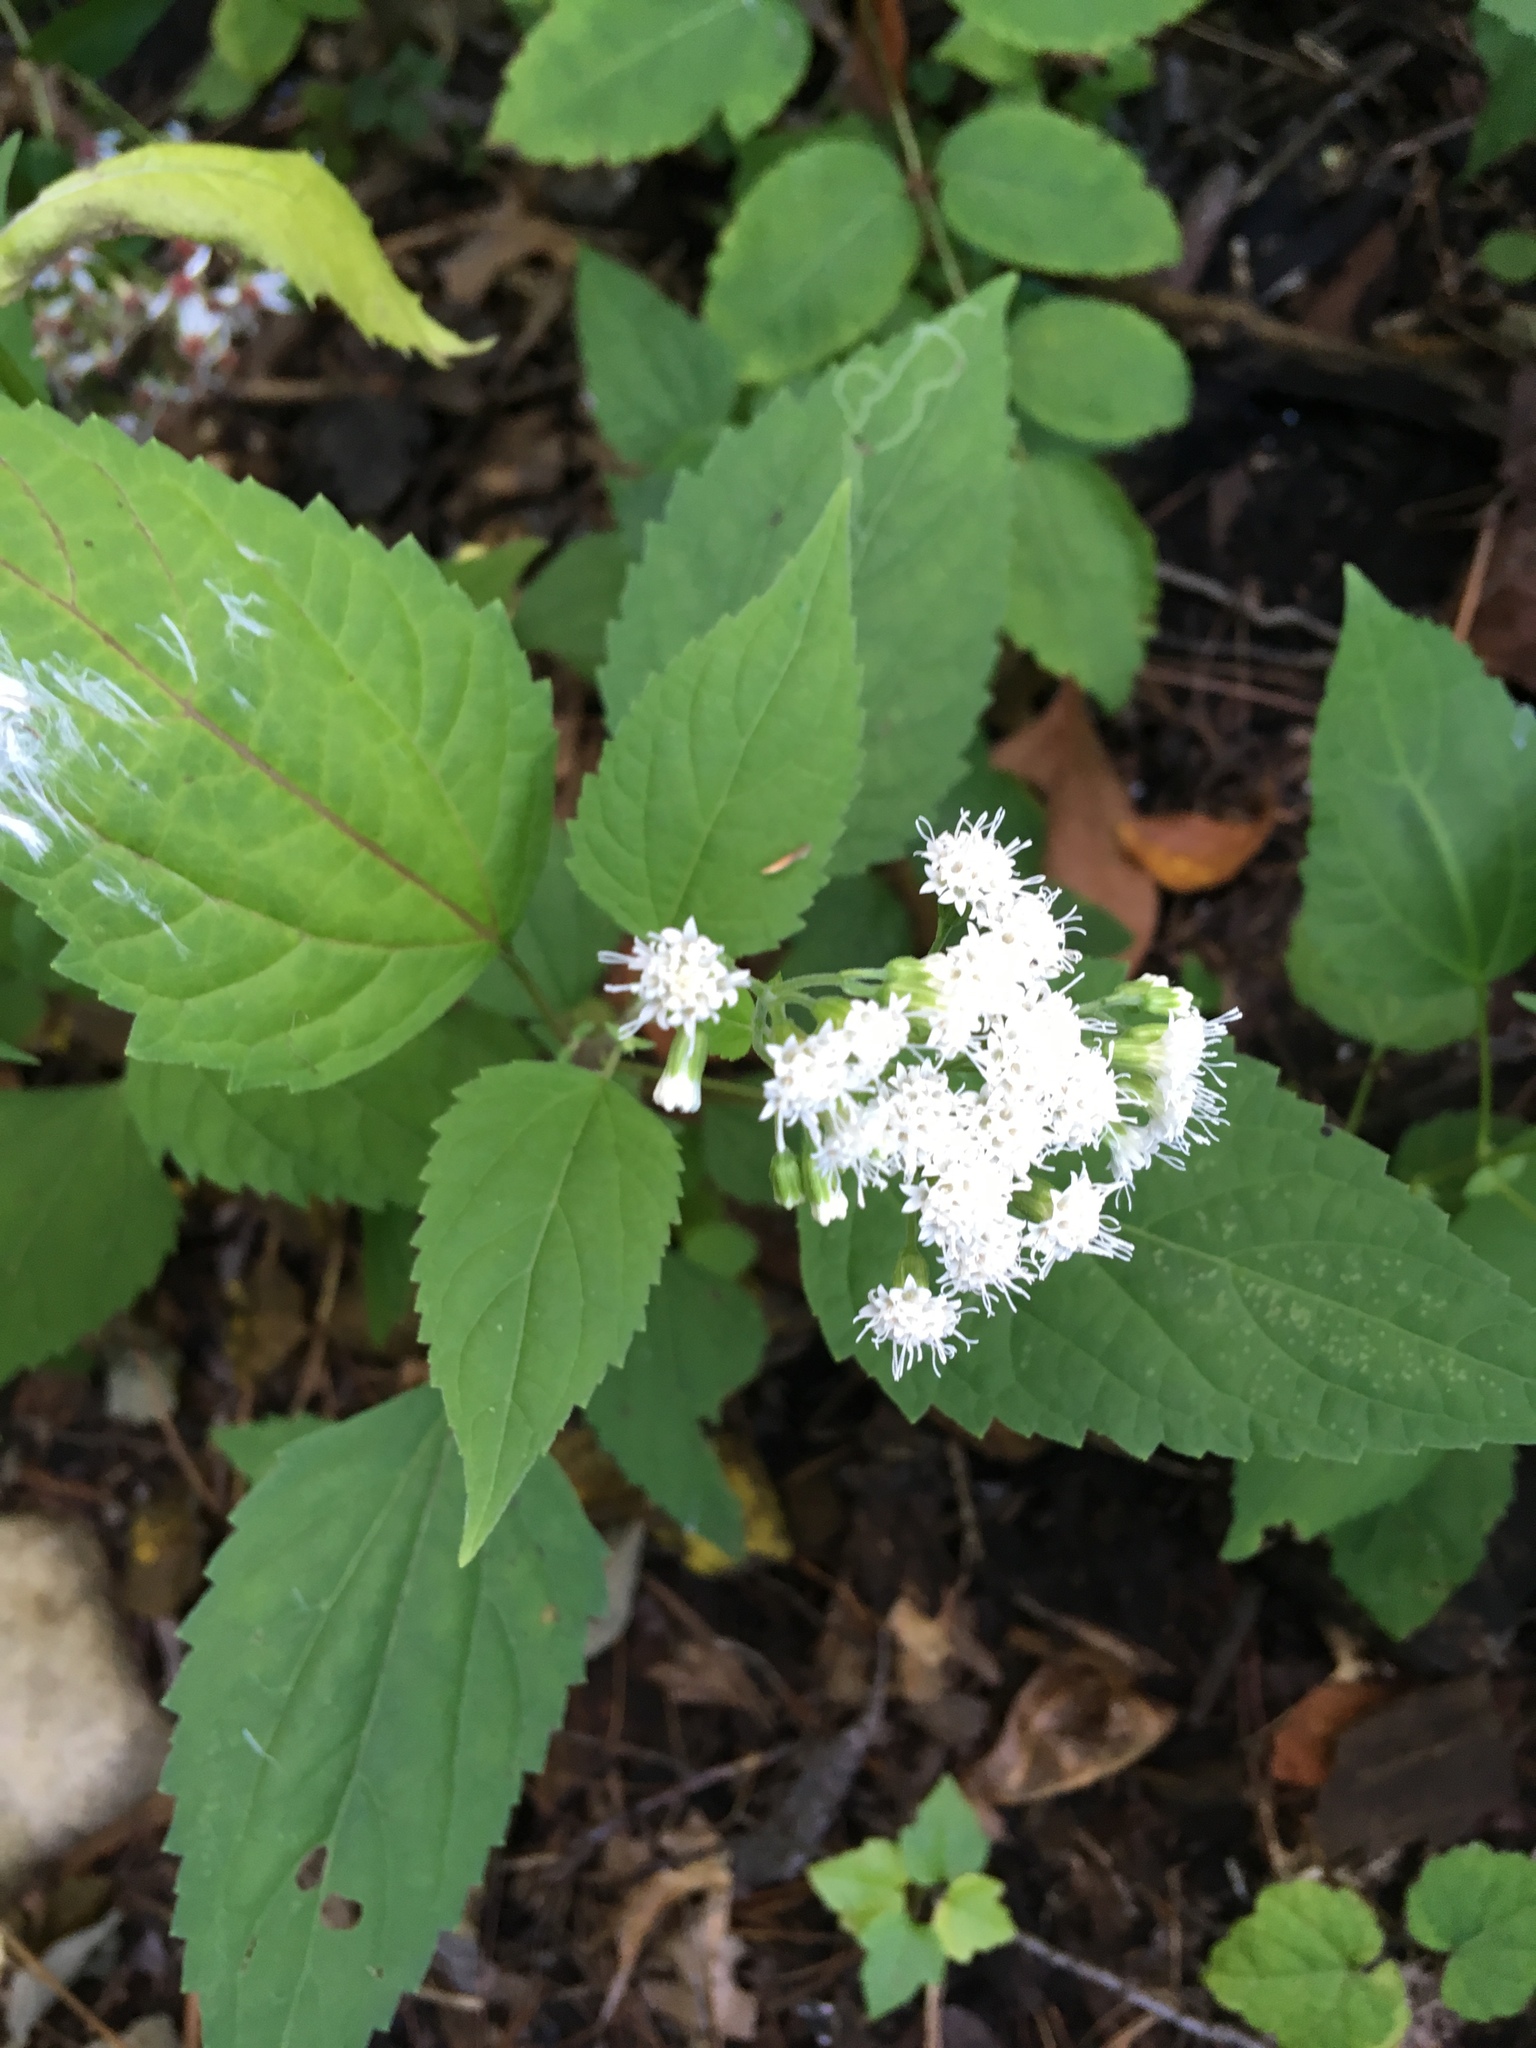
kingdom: Plantae
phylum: Tracheophyta
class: Magnoliopsida
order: Asterales
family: Asteraceae
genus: Ageratina
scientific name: Ageratina altissima
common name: White snakeroot
